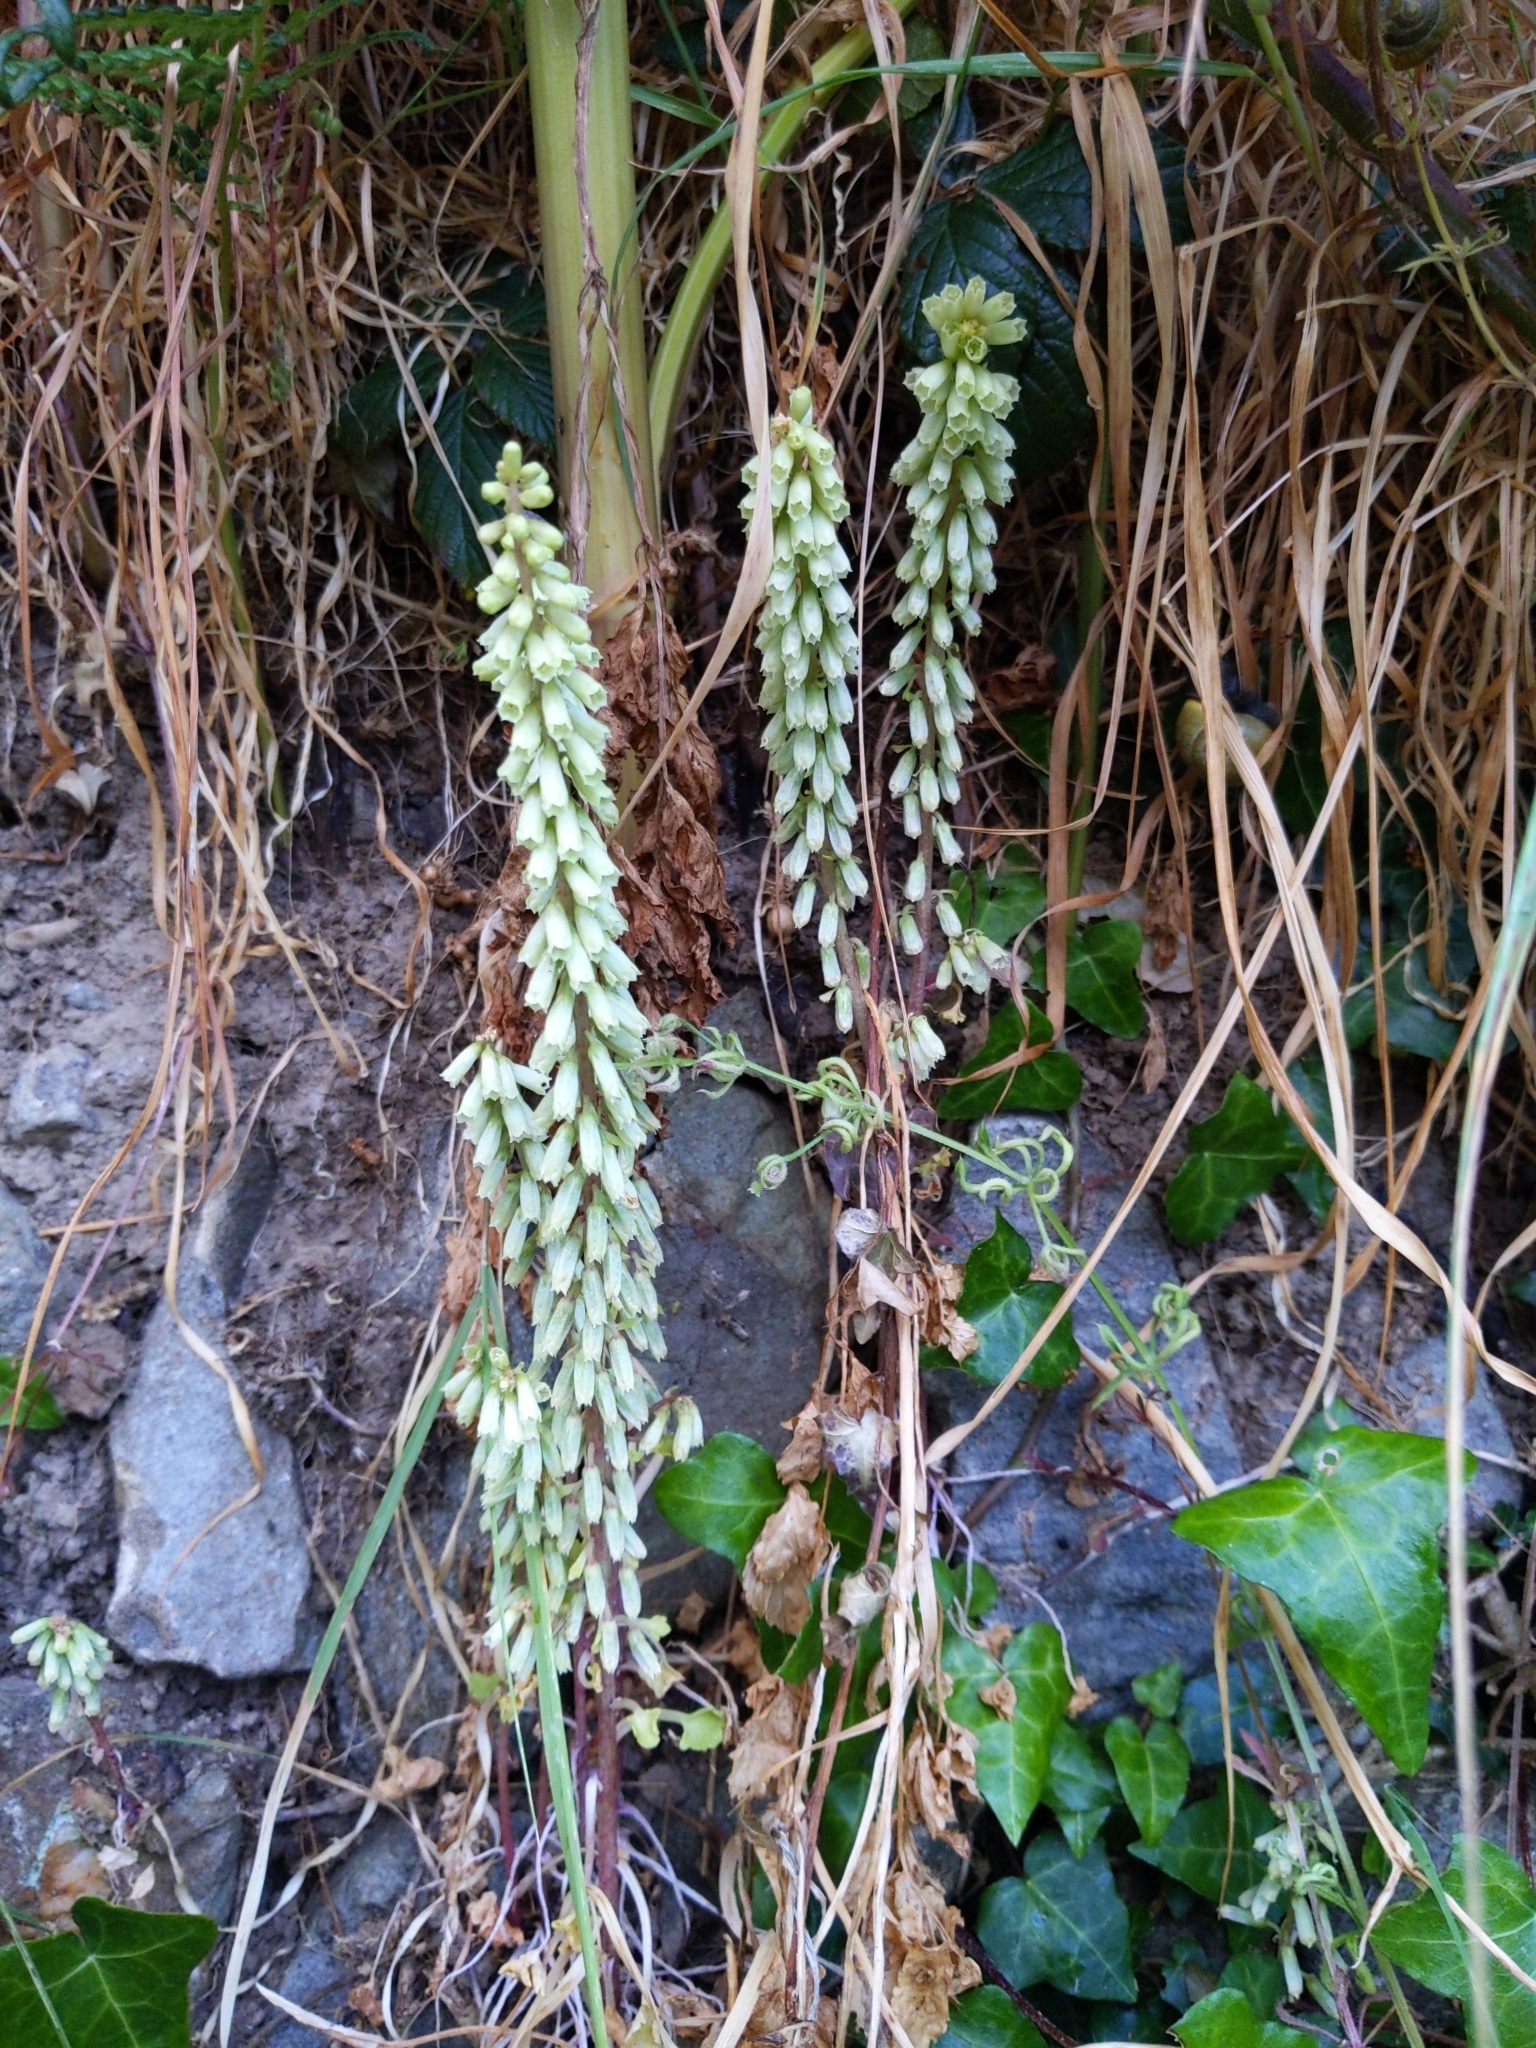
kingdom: Plantae
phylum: Tracheophyta
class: Magnoliopsida
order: Saxifragales
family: Crassulaceae
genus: Umbilicus
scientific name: Umbilicus rupestris
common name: Navelwort
